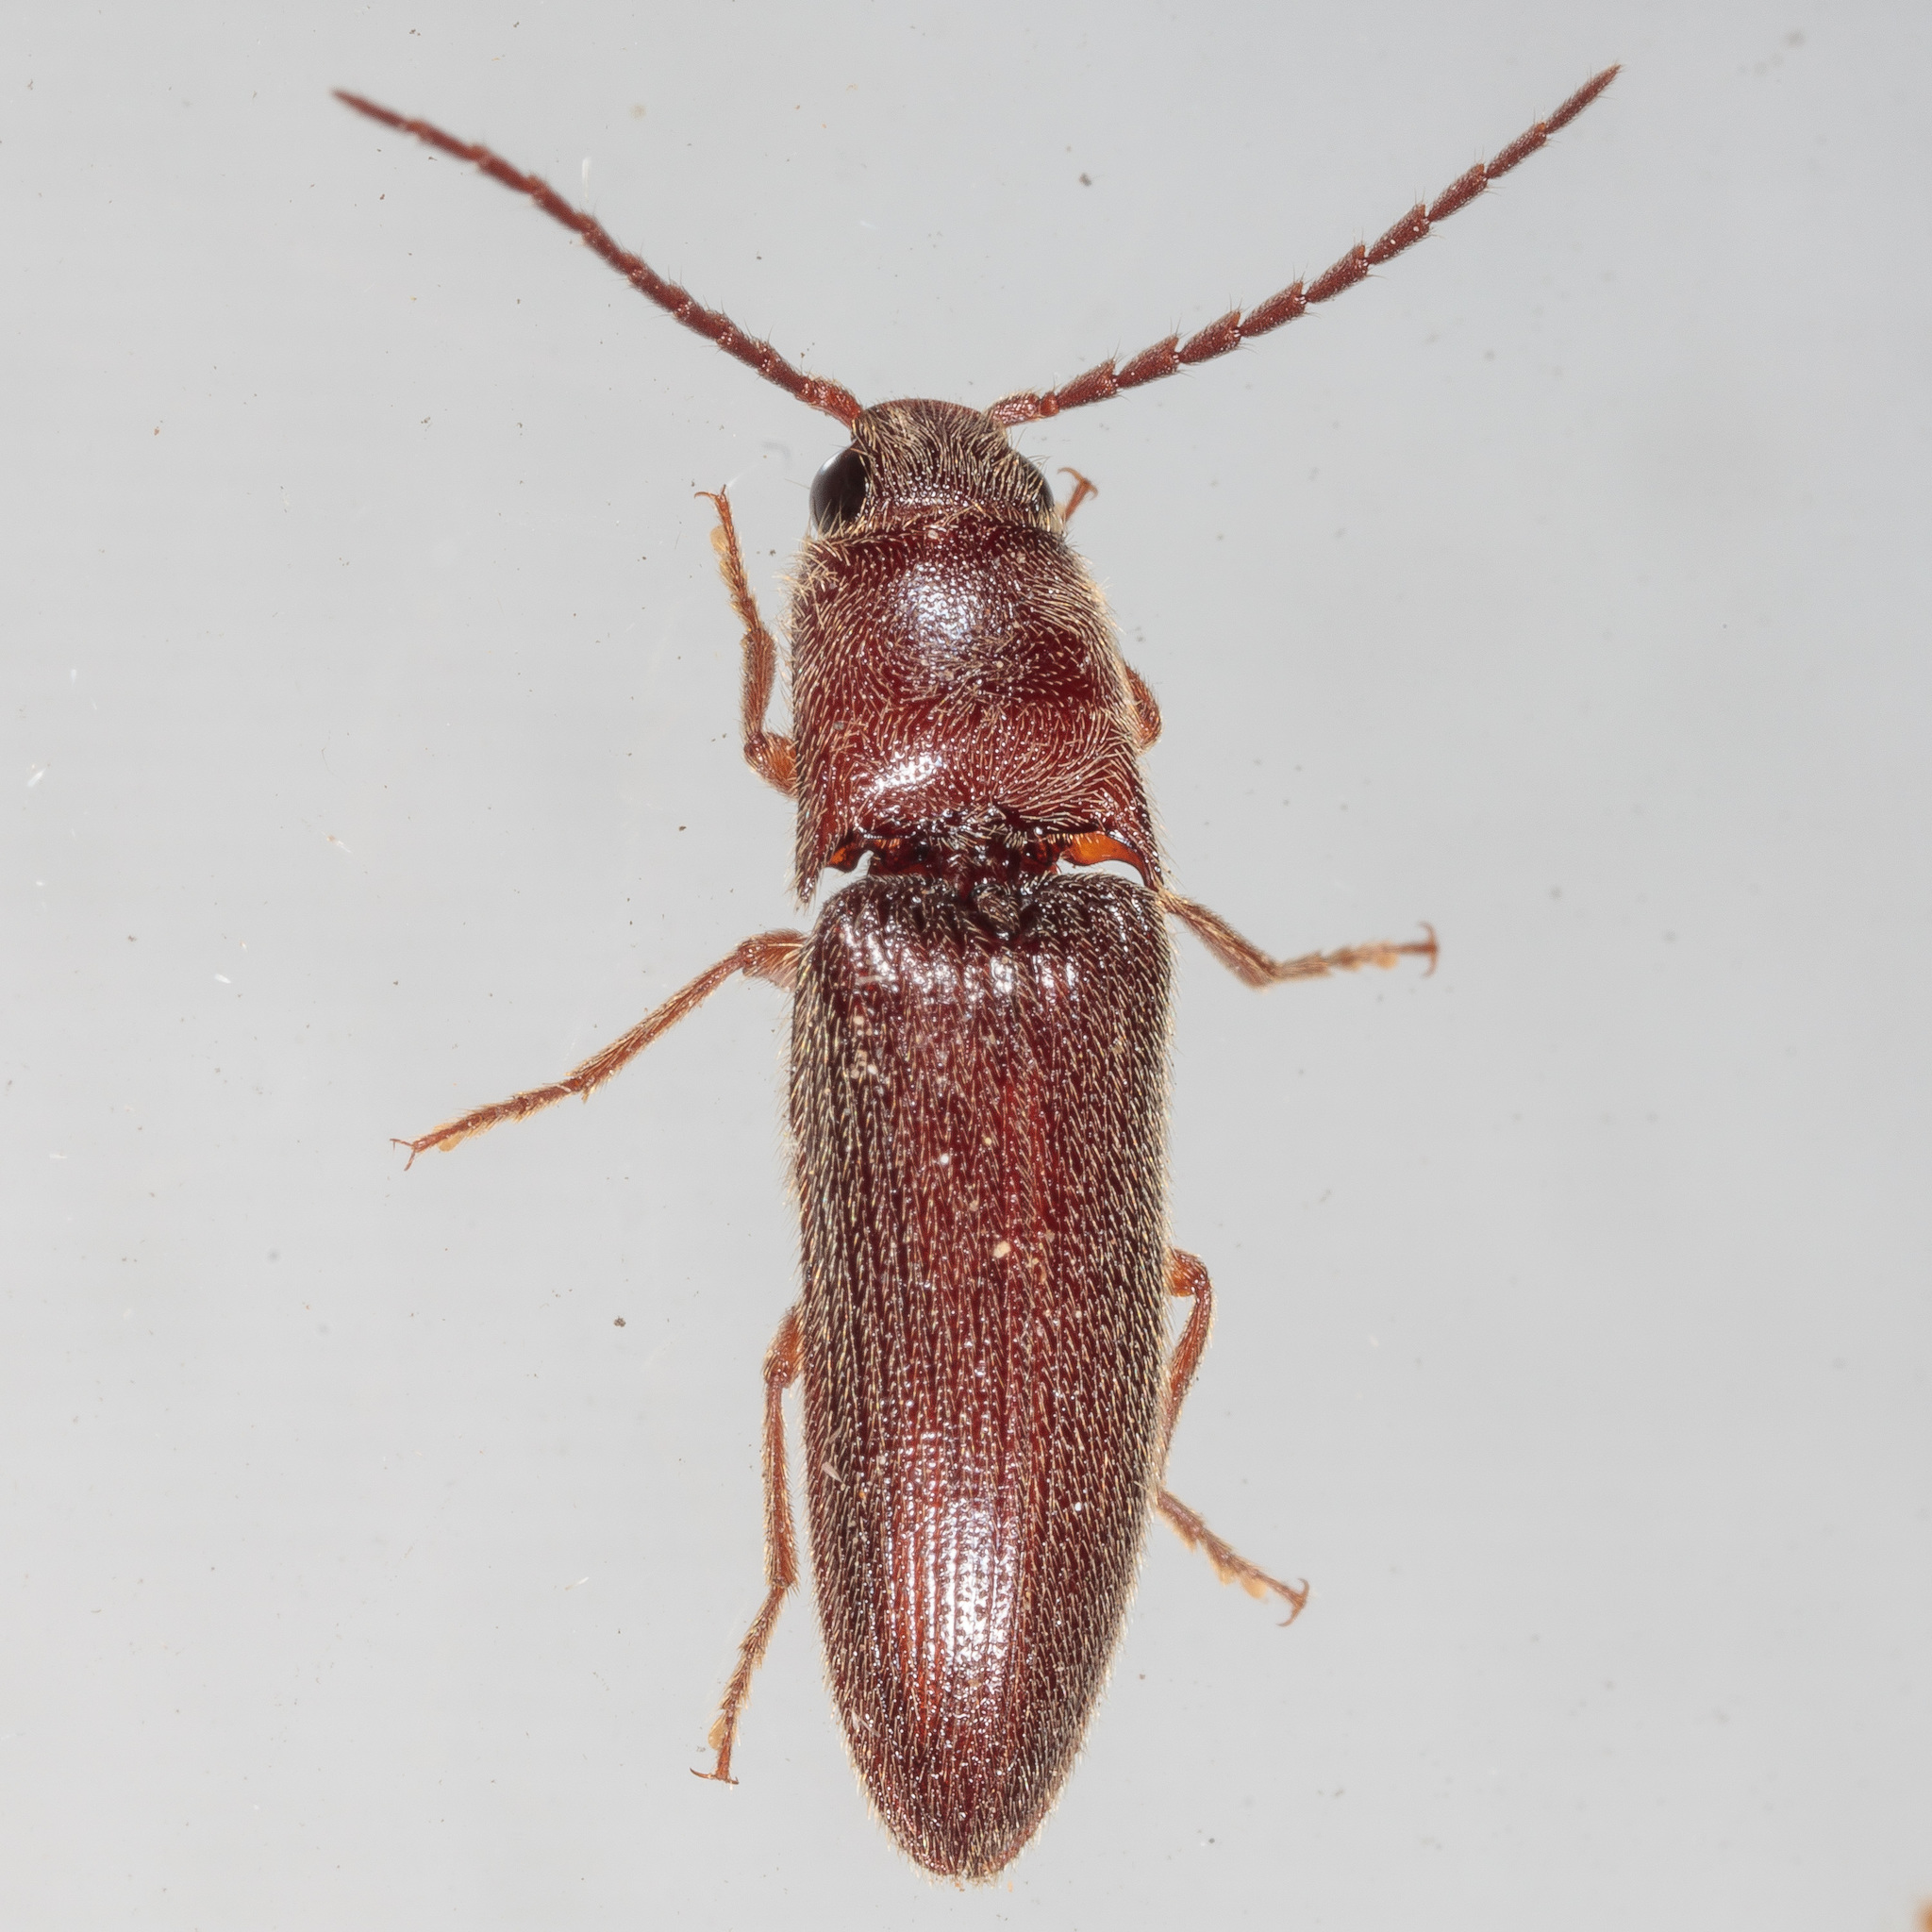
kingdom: Animalia
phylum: Arthropoda
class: Insecta
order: Coleoptera
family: Elateridae
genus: Dipropus
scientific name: Dipropus
